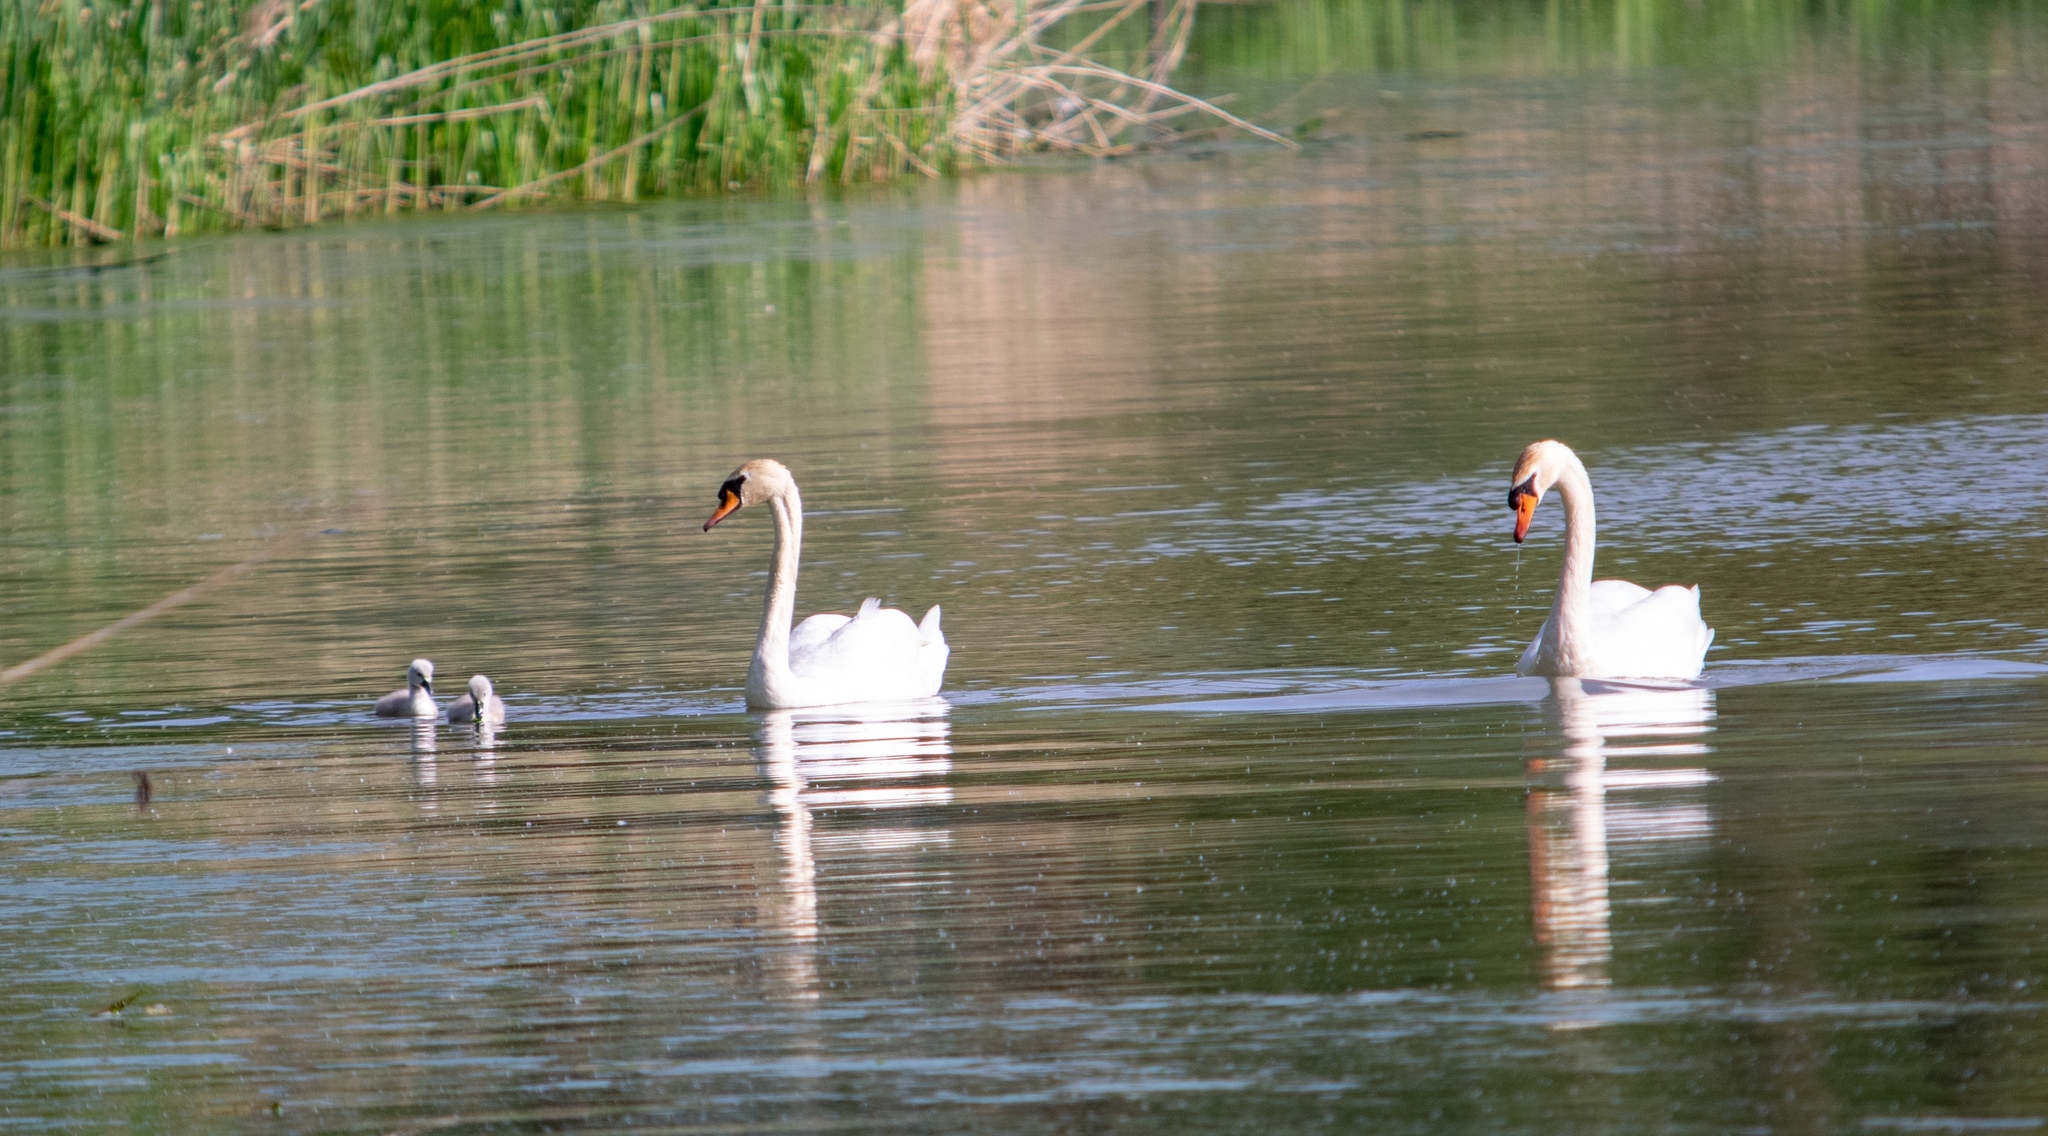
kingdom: Animalia
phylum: Chordata
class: Aves
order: Anseriformes
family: Anatidae
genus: Cygnus
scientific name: Cygnus olor
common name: Mute swan
